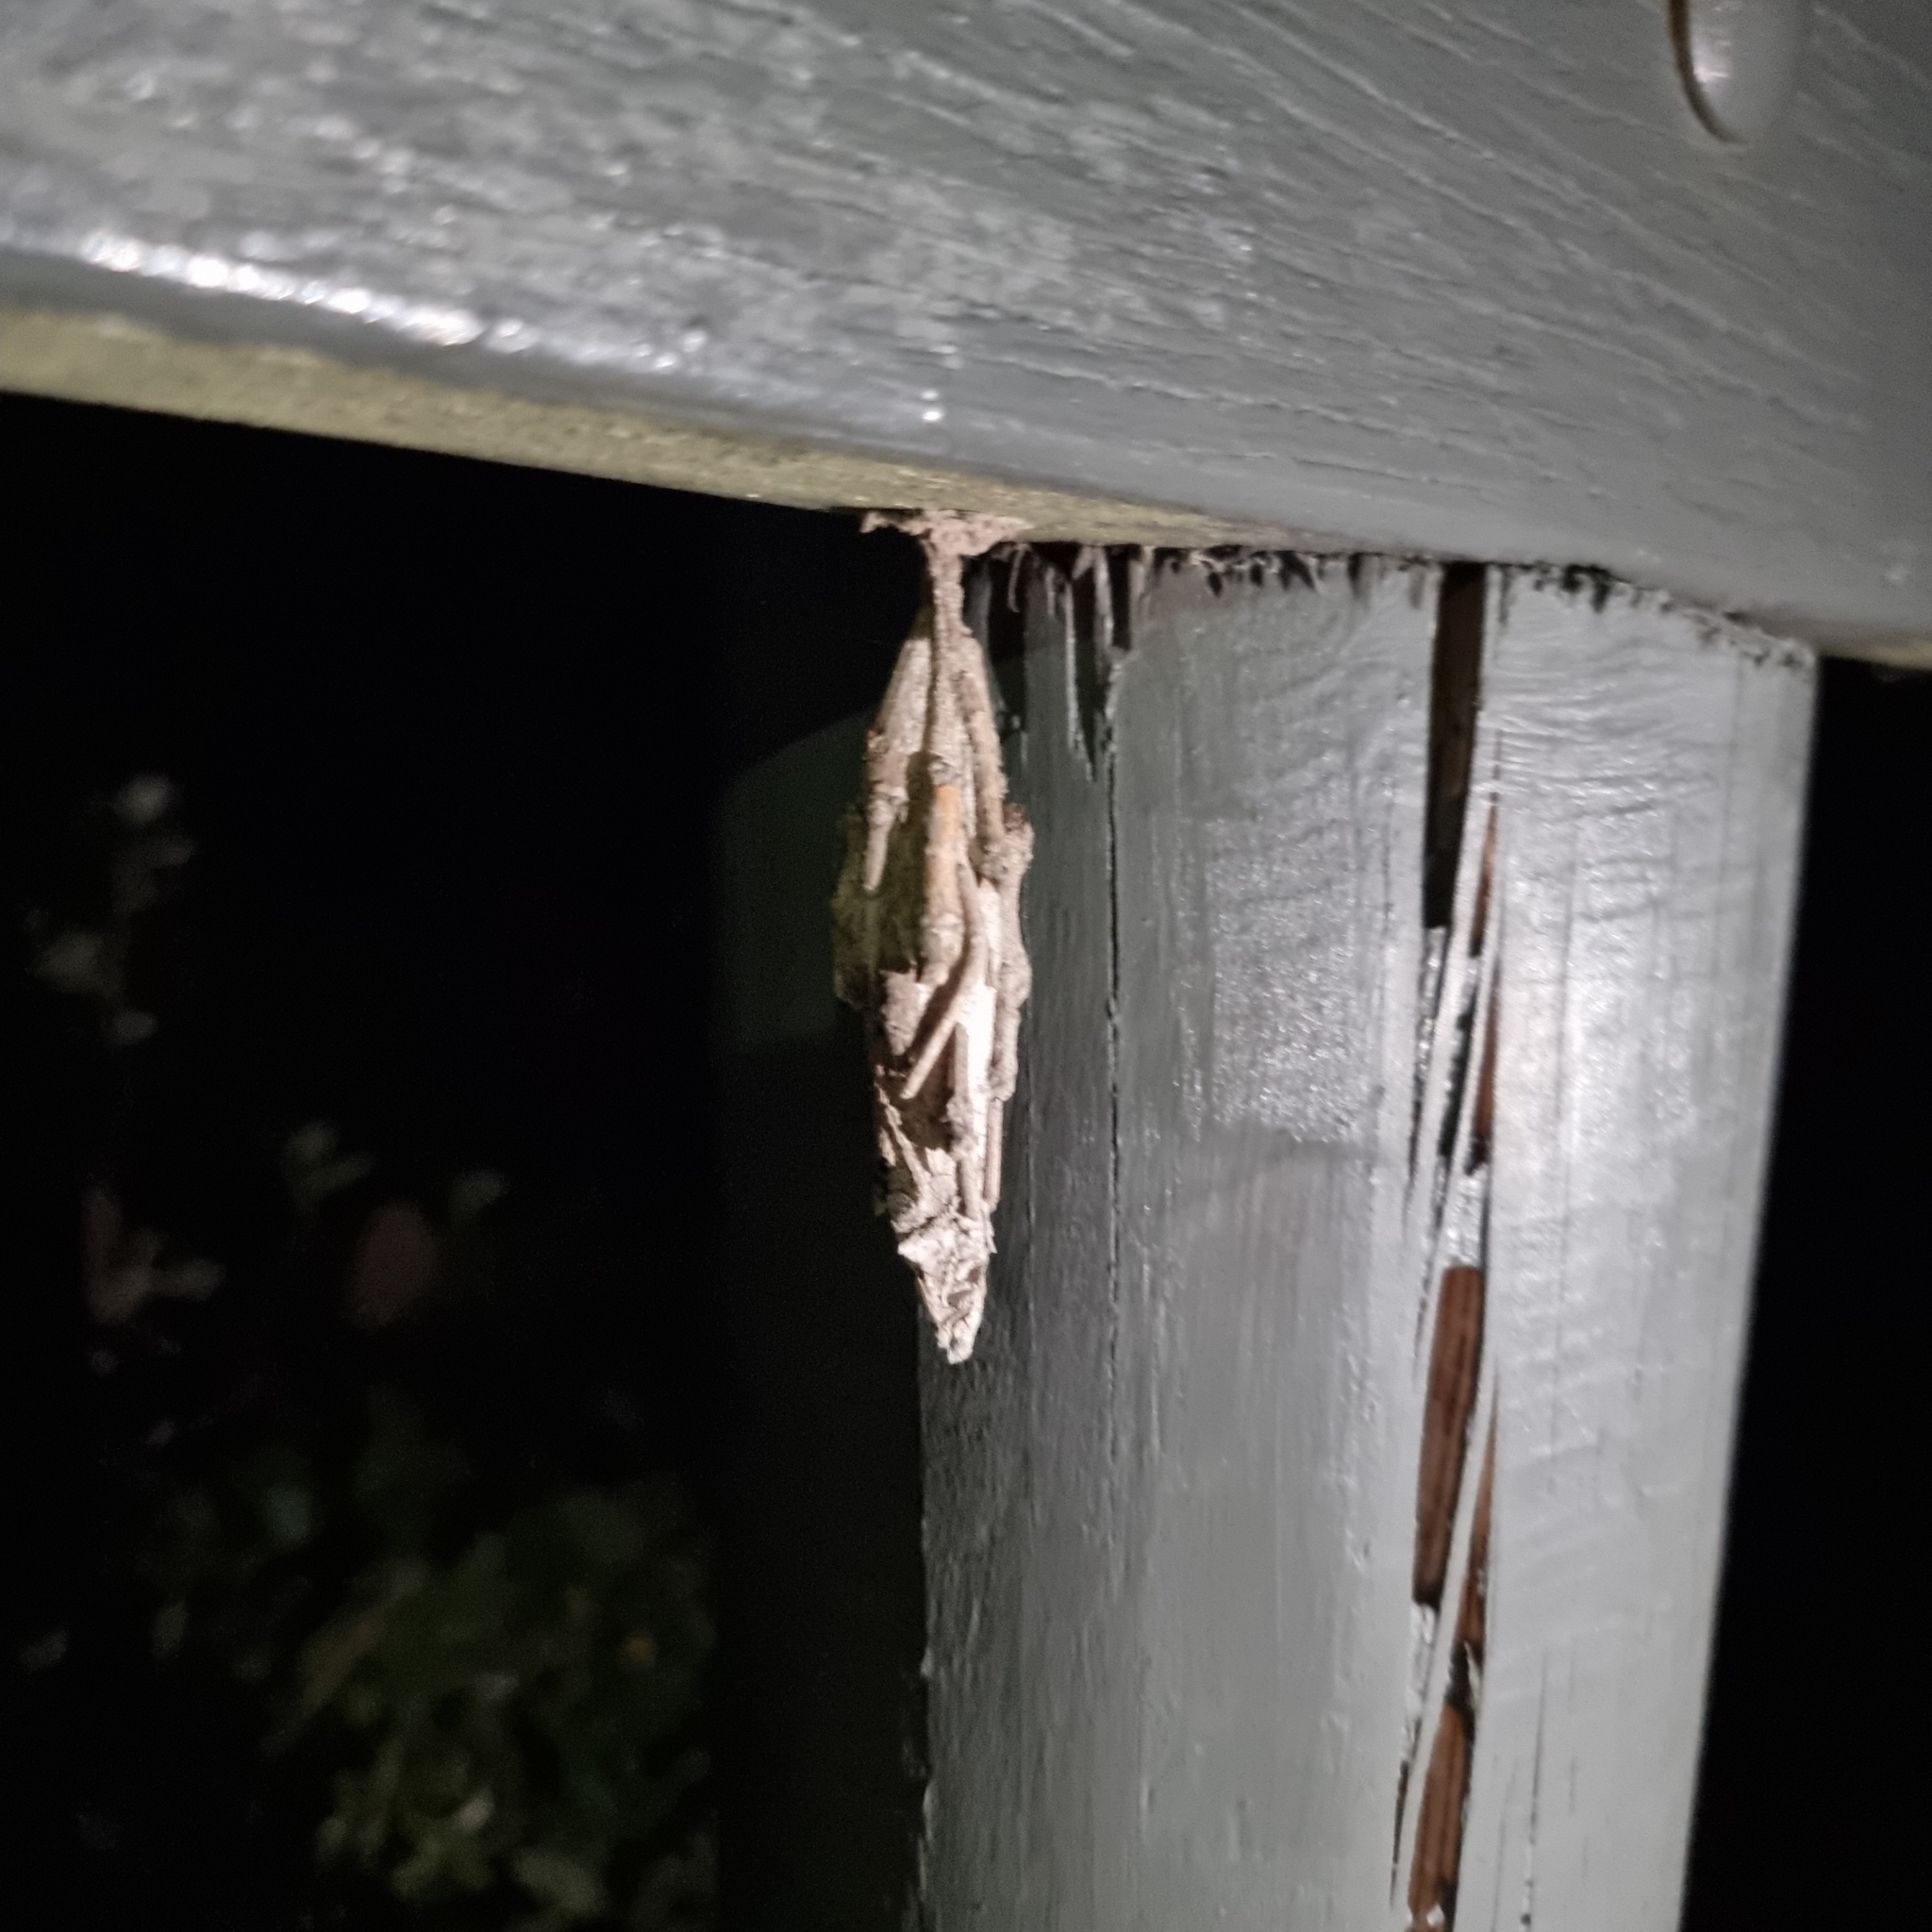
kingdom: Animalia
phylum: Arthropoda
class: Insecta
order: Lepidoptera
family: Psychidae
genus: Metura
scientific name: Metura elongatus
